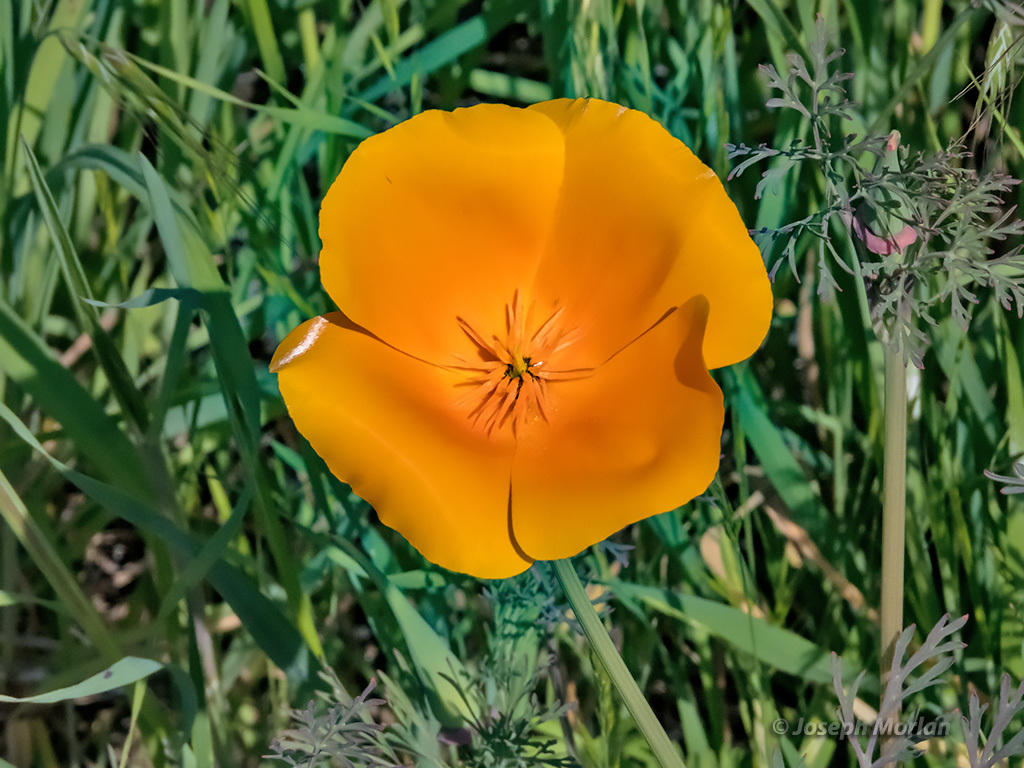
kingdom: Plantae
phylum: Tracheophyta
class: Magnoliopsida
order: Ranunculales
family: Papaveraceae
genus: Eschscholzia
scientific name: Eschscholzia californica
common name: California poppy
